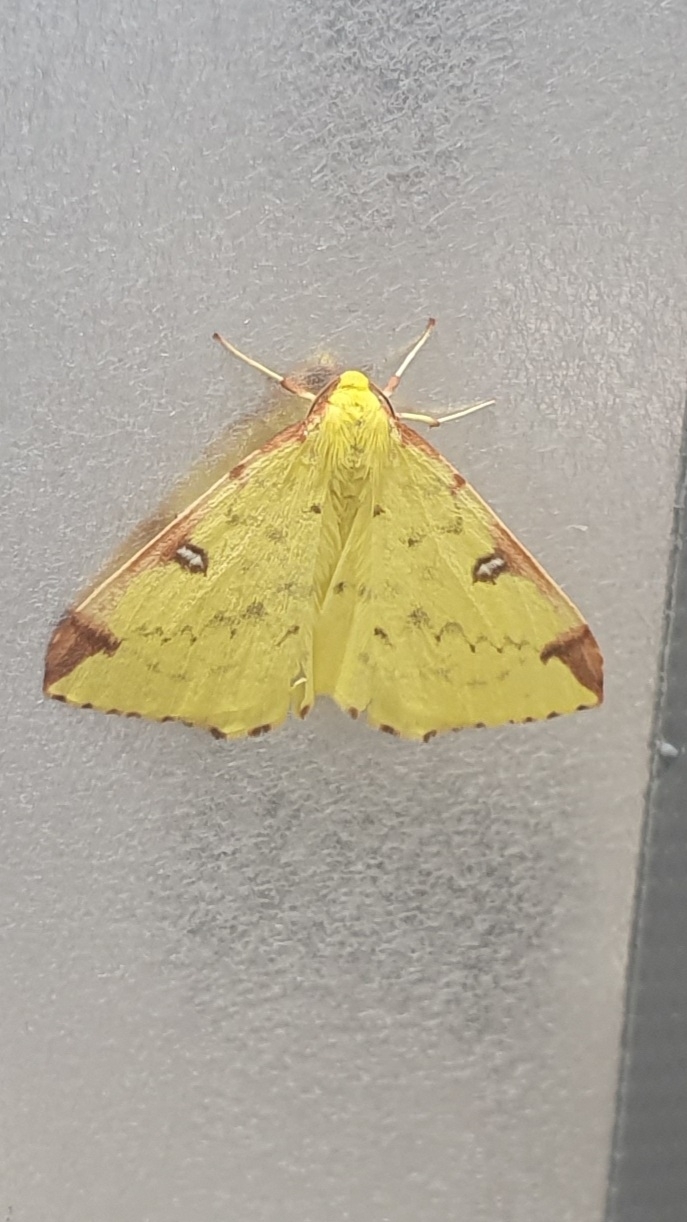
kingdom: Animalia
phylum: Arthropoda
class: Insecta
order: Lepidoptera
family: Geometridae
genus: Opisthograptis
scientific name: Opisthograptis luteolata
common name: Brimstone moth
